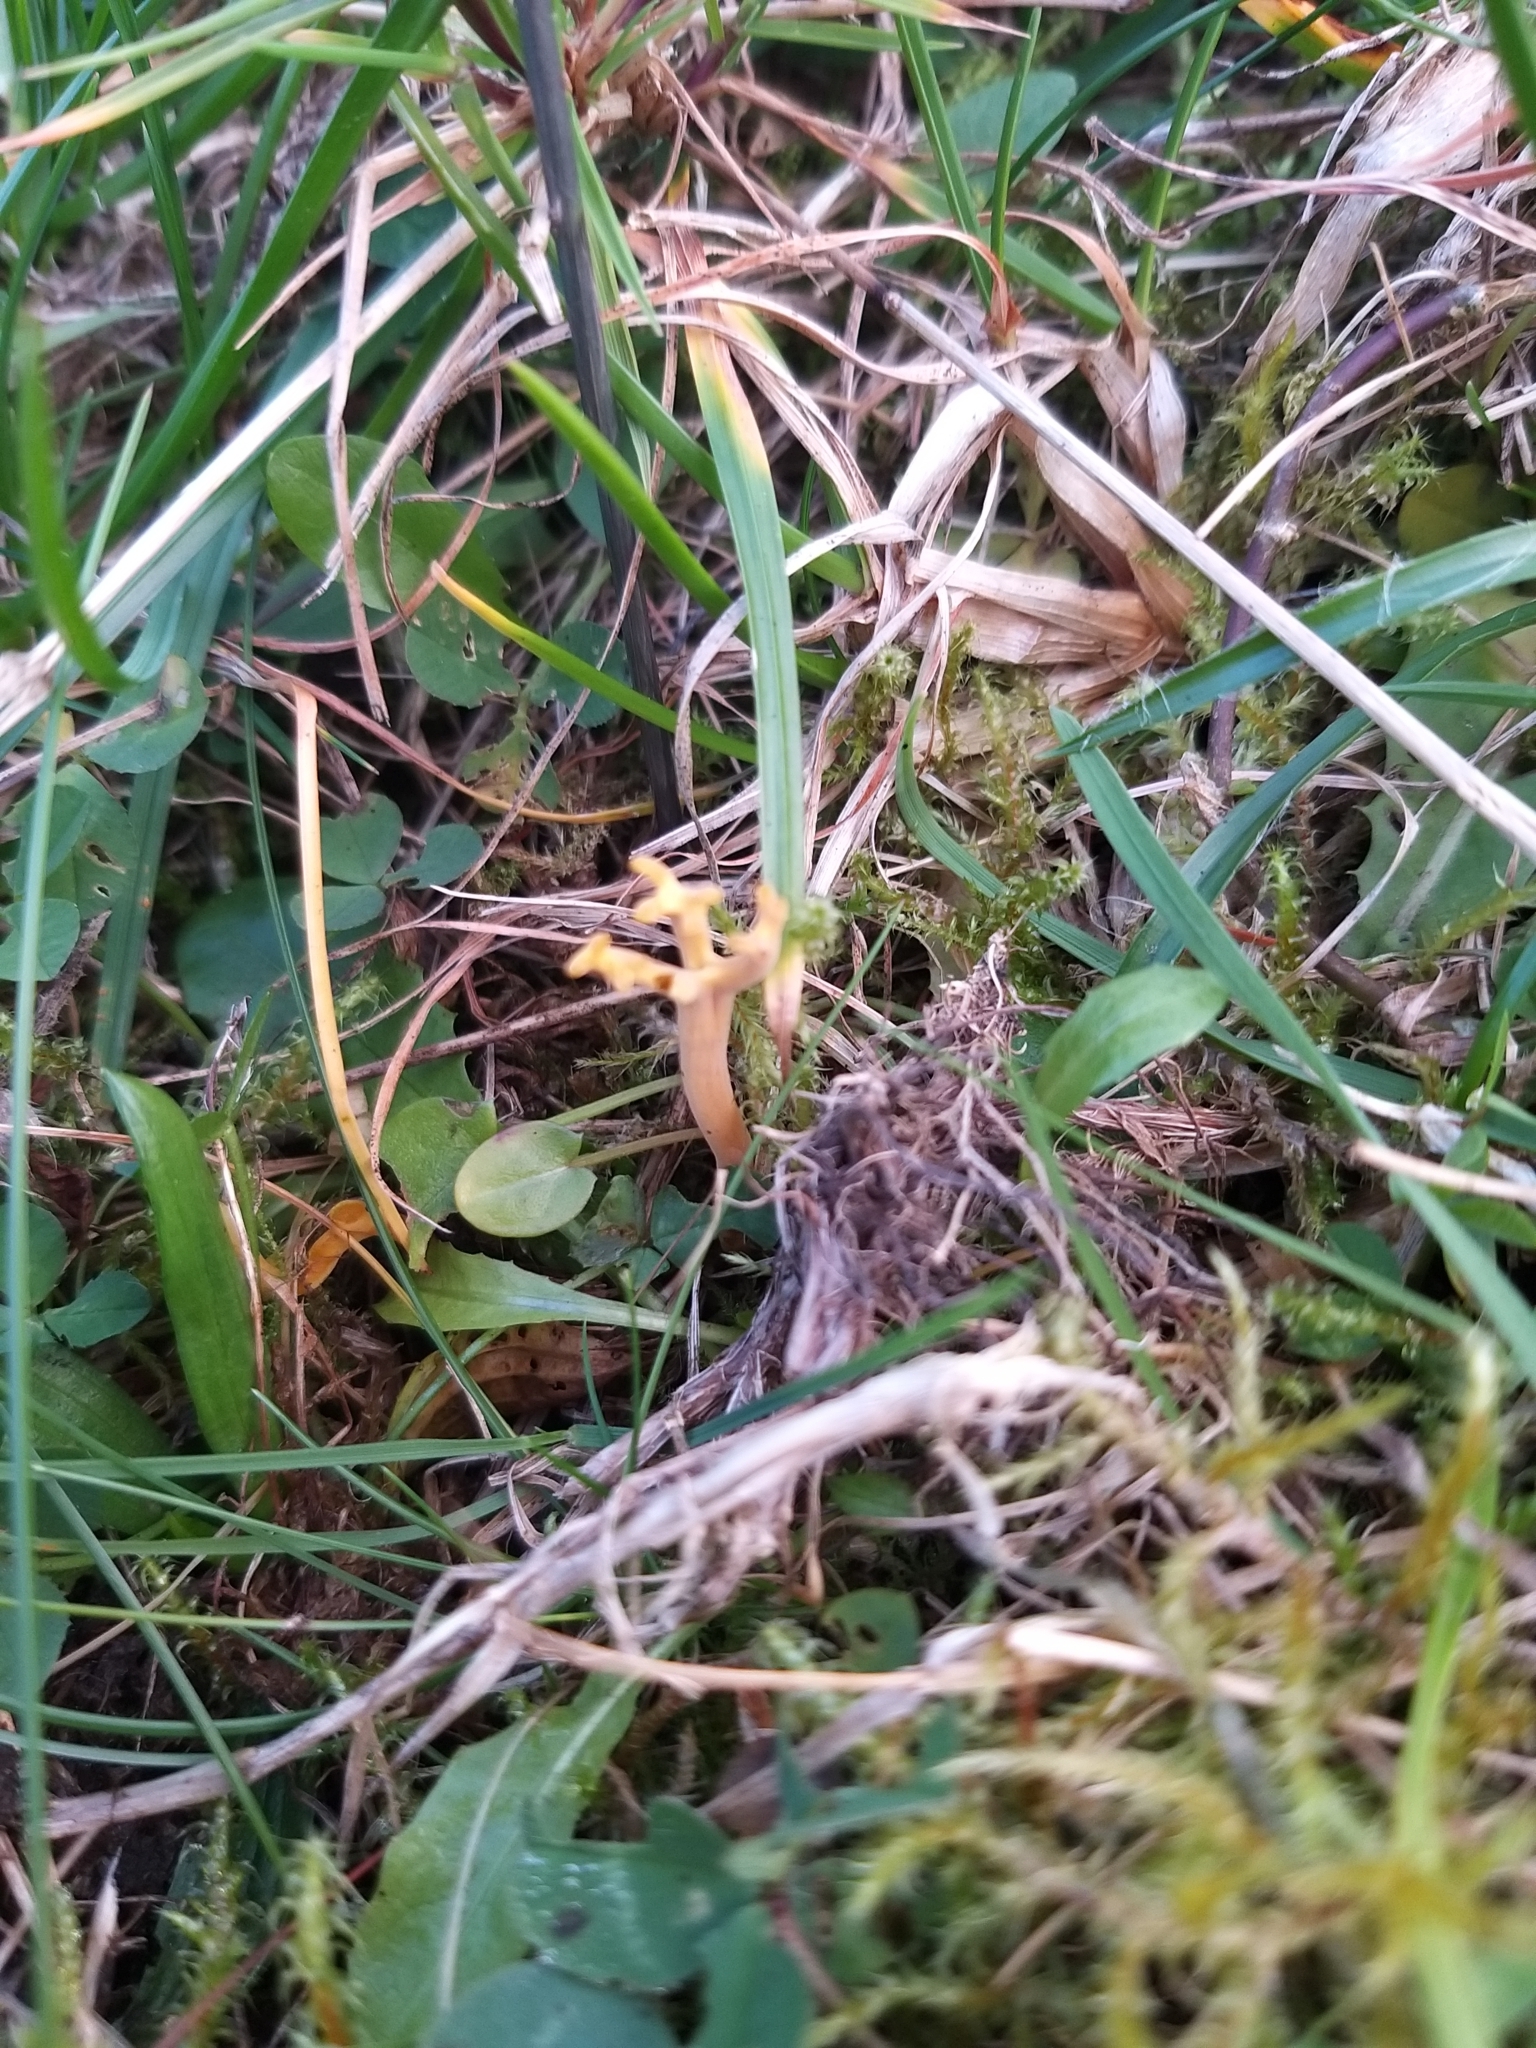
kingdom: Fungi
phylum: Basidiomycota
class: Agaricomycetes
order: Agaricales
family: Clavariaceae
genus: Clavulinopsis
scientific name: Clavulinopsis corniculata
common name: Meadow coral
